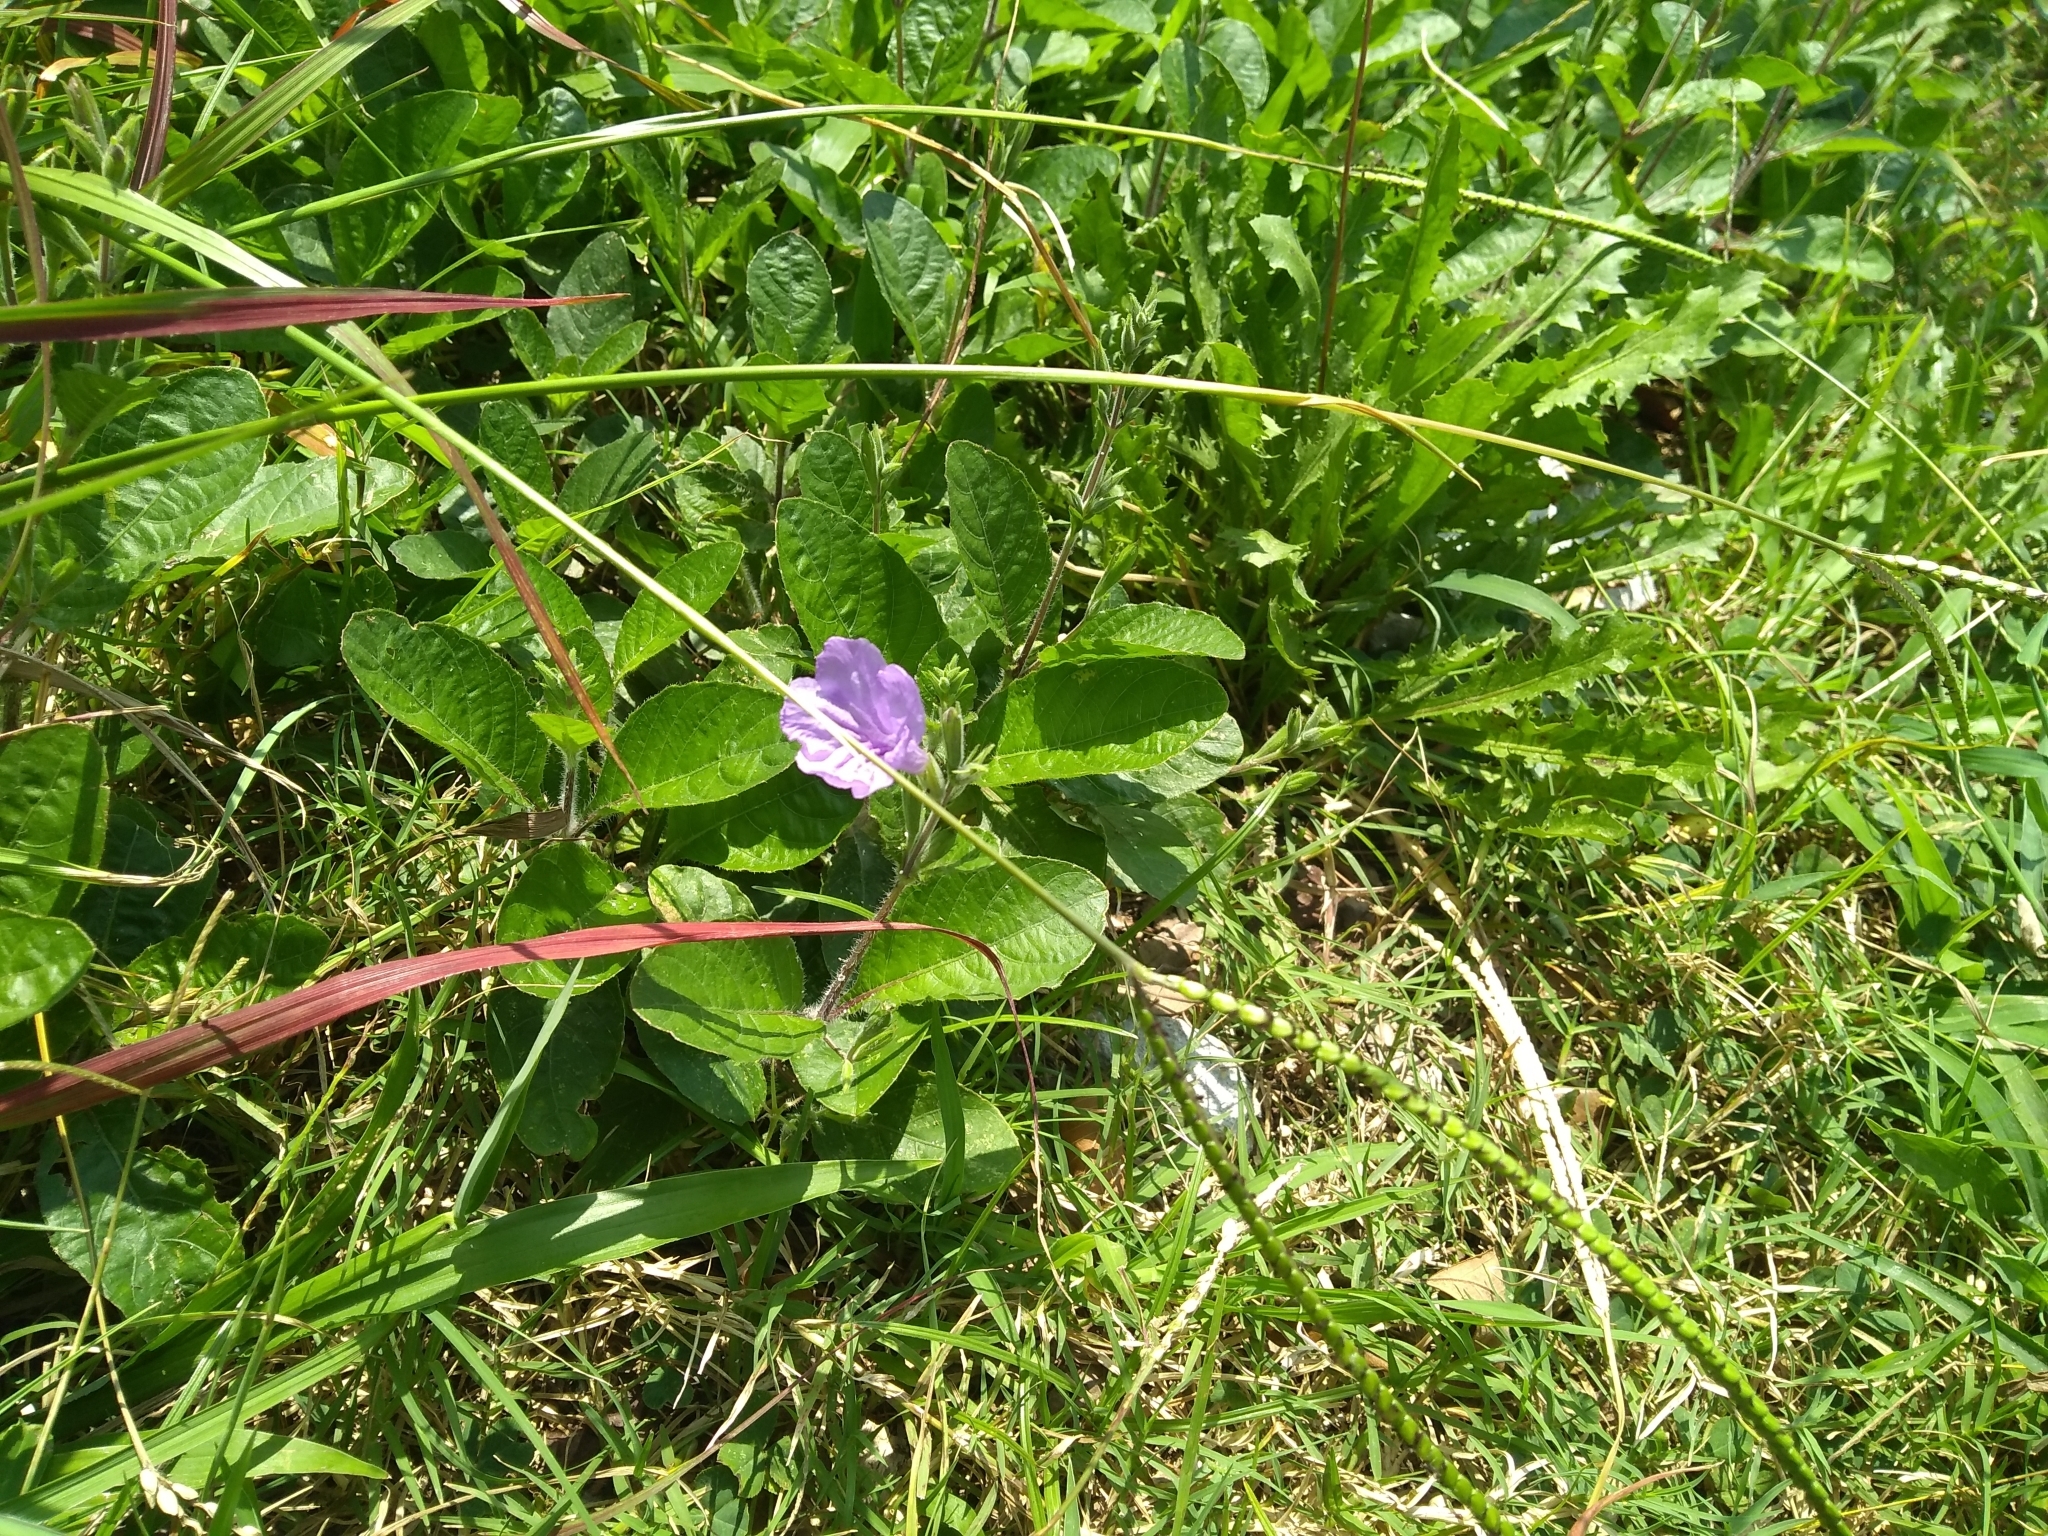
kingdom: Plantae
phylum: Tracheophyta
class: Magnoliopsida
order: Lamiales
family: Acanthaceae
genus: Ruellia
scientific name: Ruellia ciliatiflora
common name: Hairyflower wild petunia
